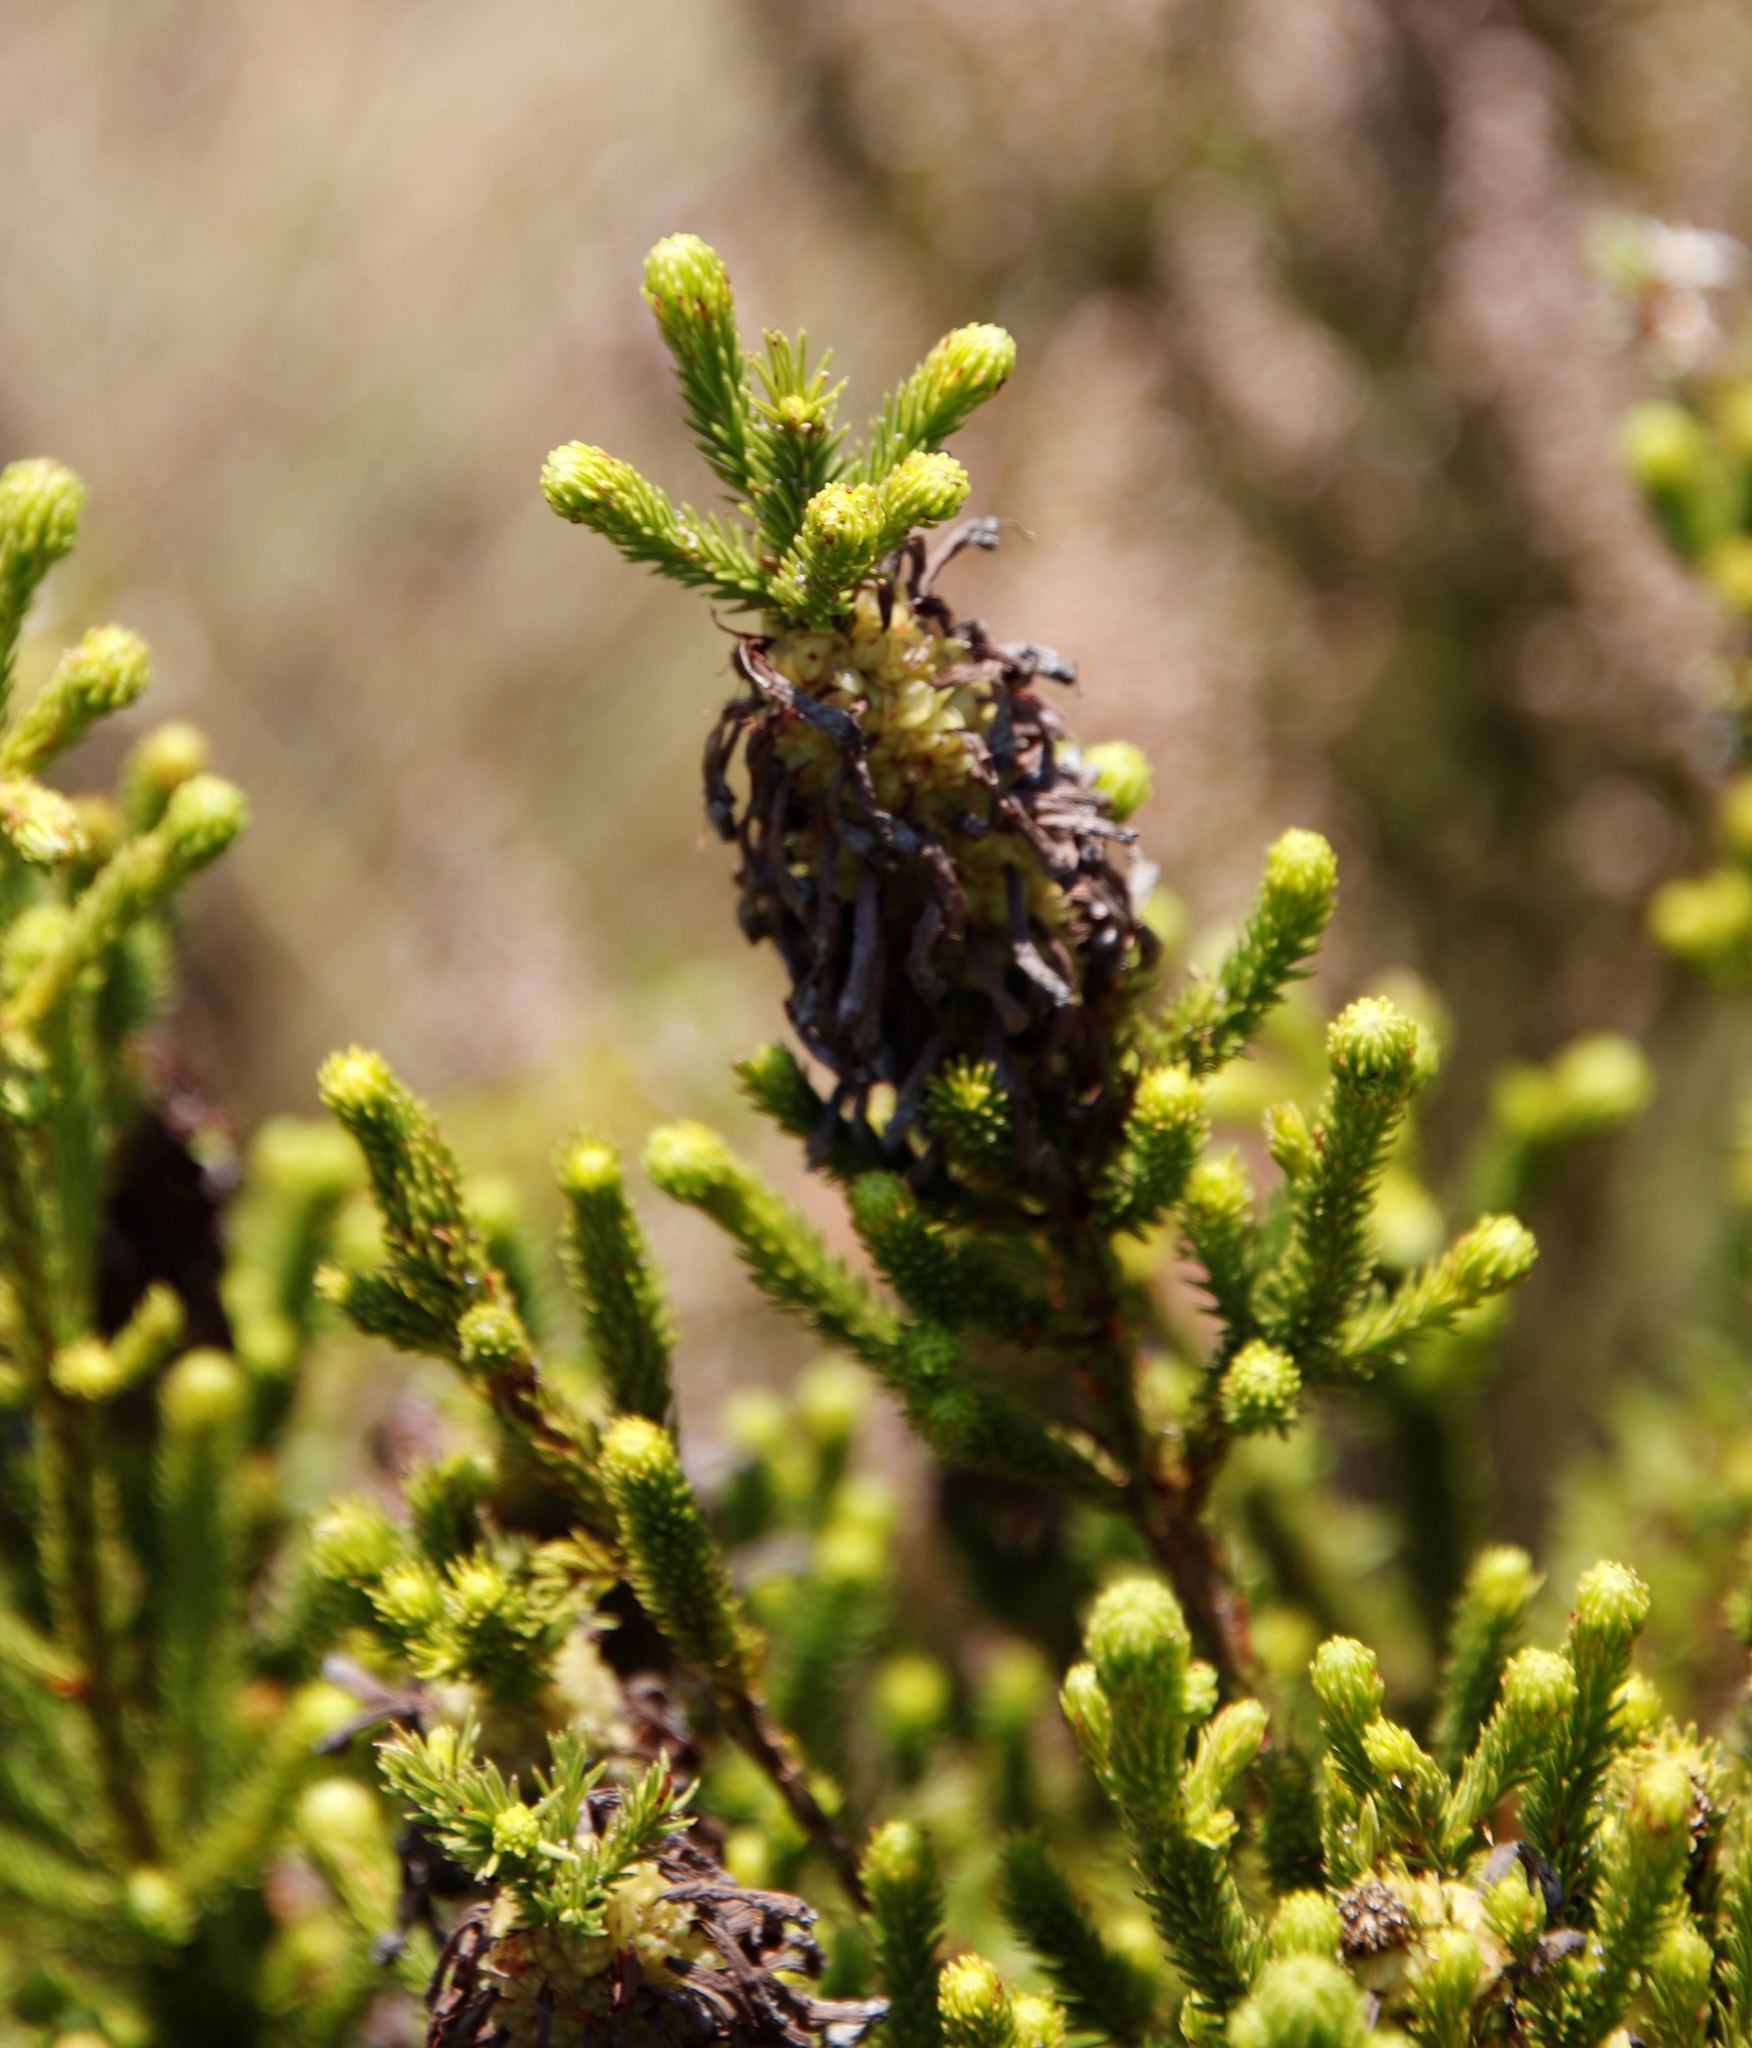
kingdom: Plantae
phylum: Tracheophyta
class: Magnoliopsida
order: Ericales
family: Ericaceae
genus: Erica
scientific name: Erica sessiliflora
